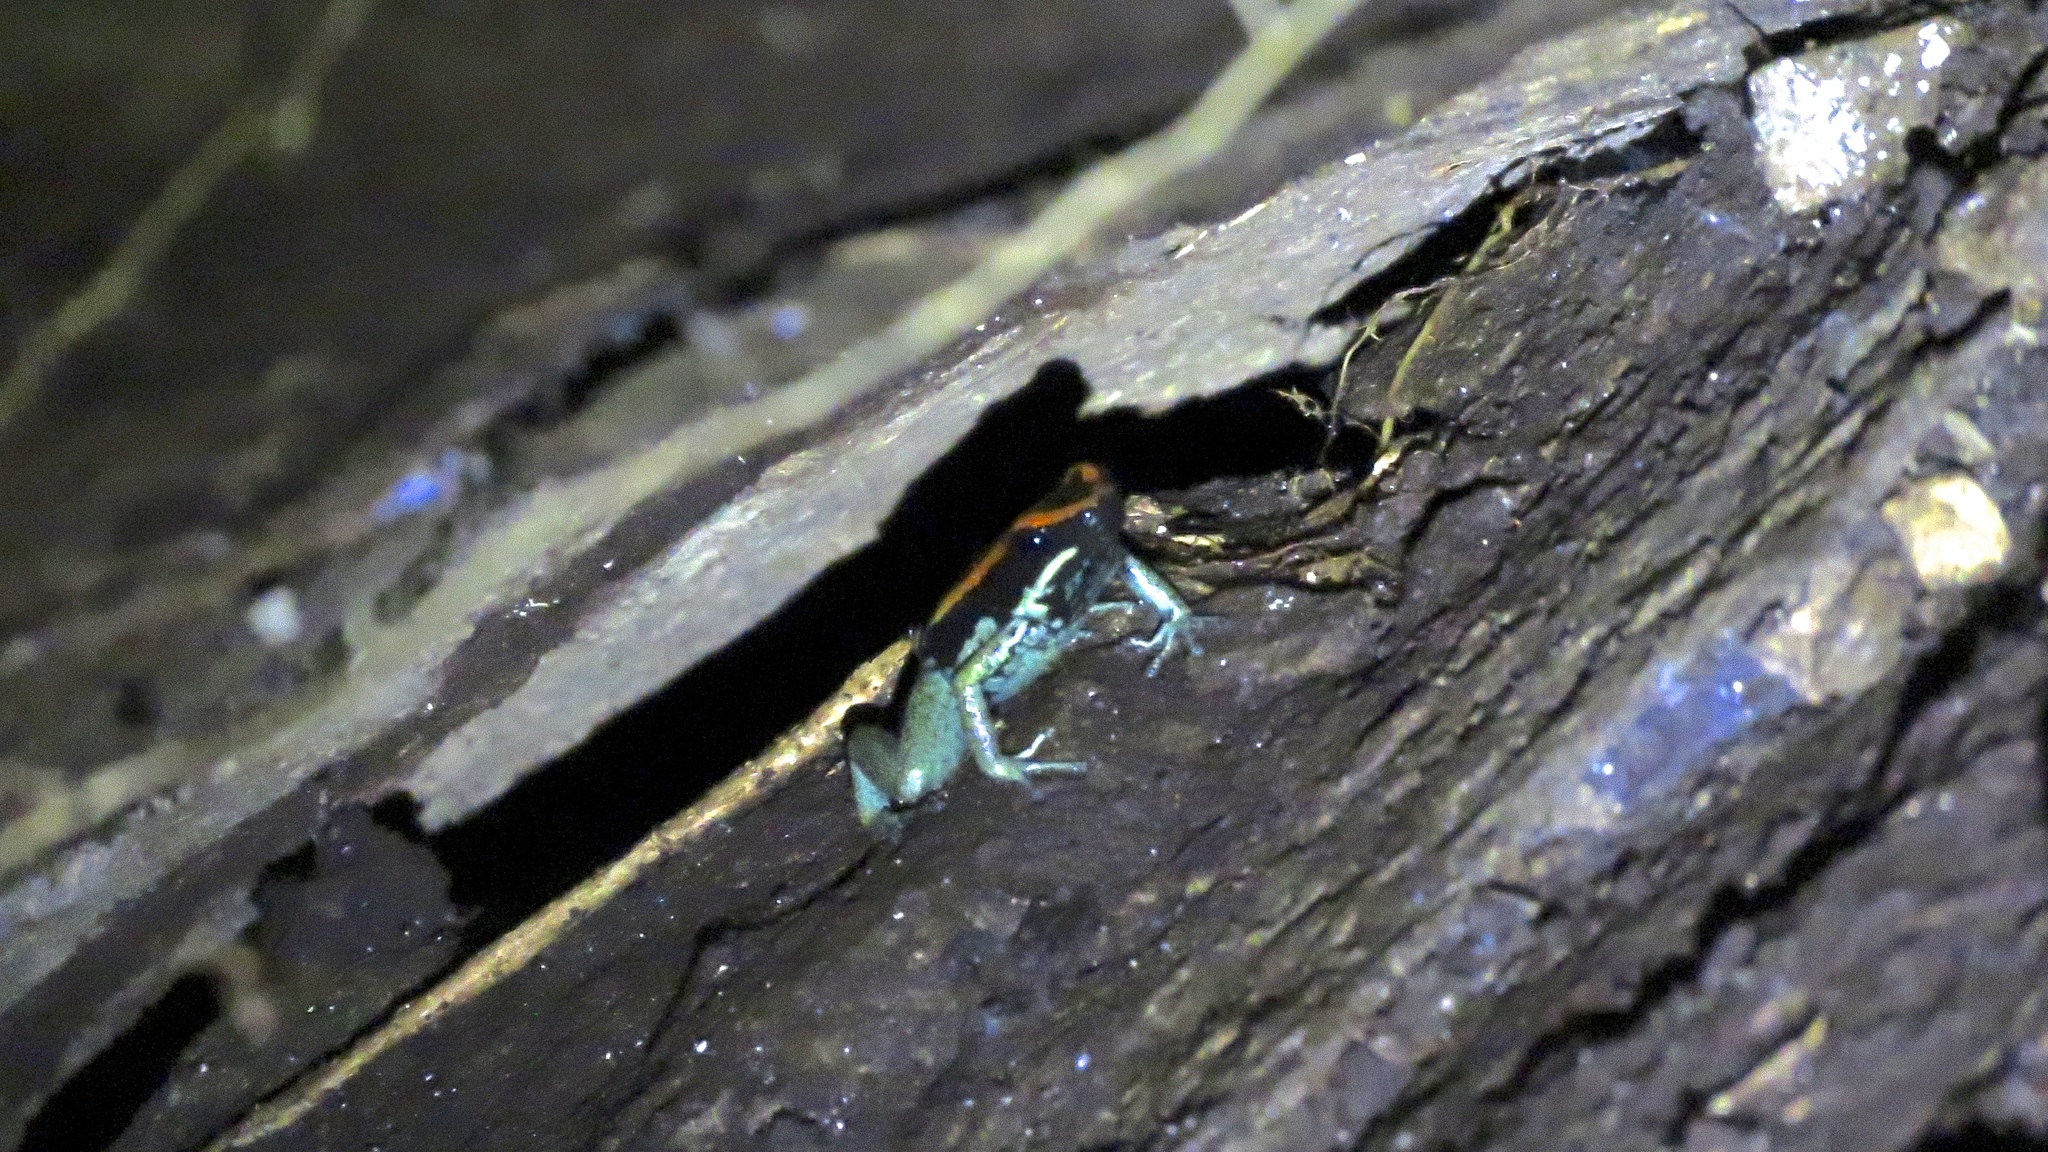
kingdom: Animalia
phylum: Chordata
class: Amphibia
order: Anura
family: Dendrobatidae
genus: Phyllobates
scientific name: Phyllobates vittatus
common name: Golfodulcean poison frog
